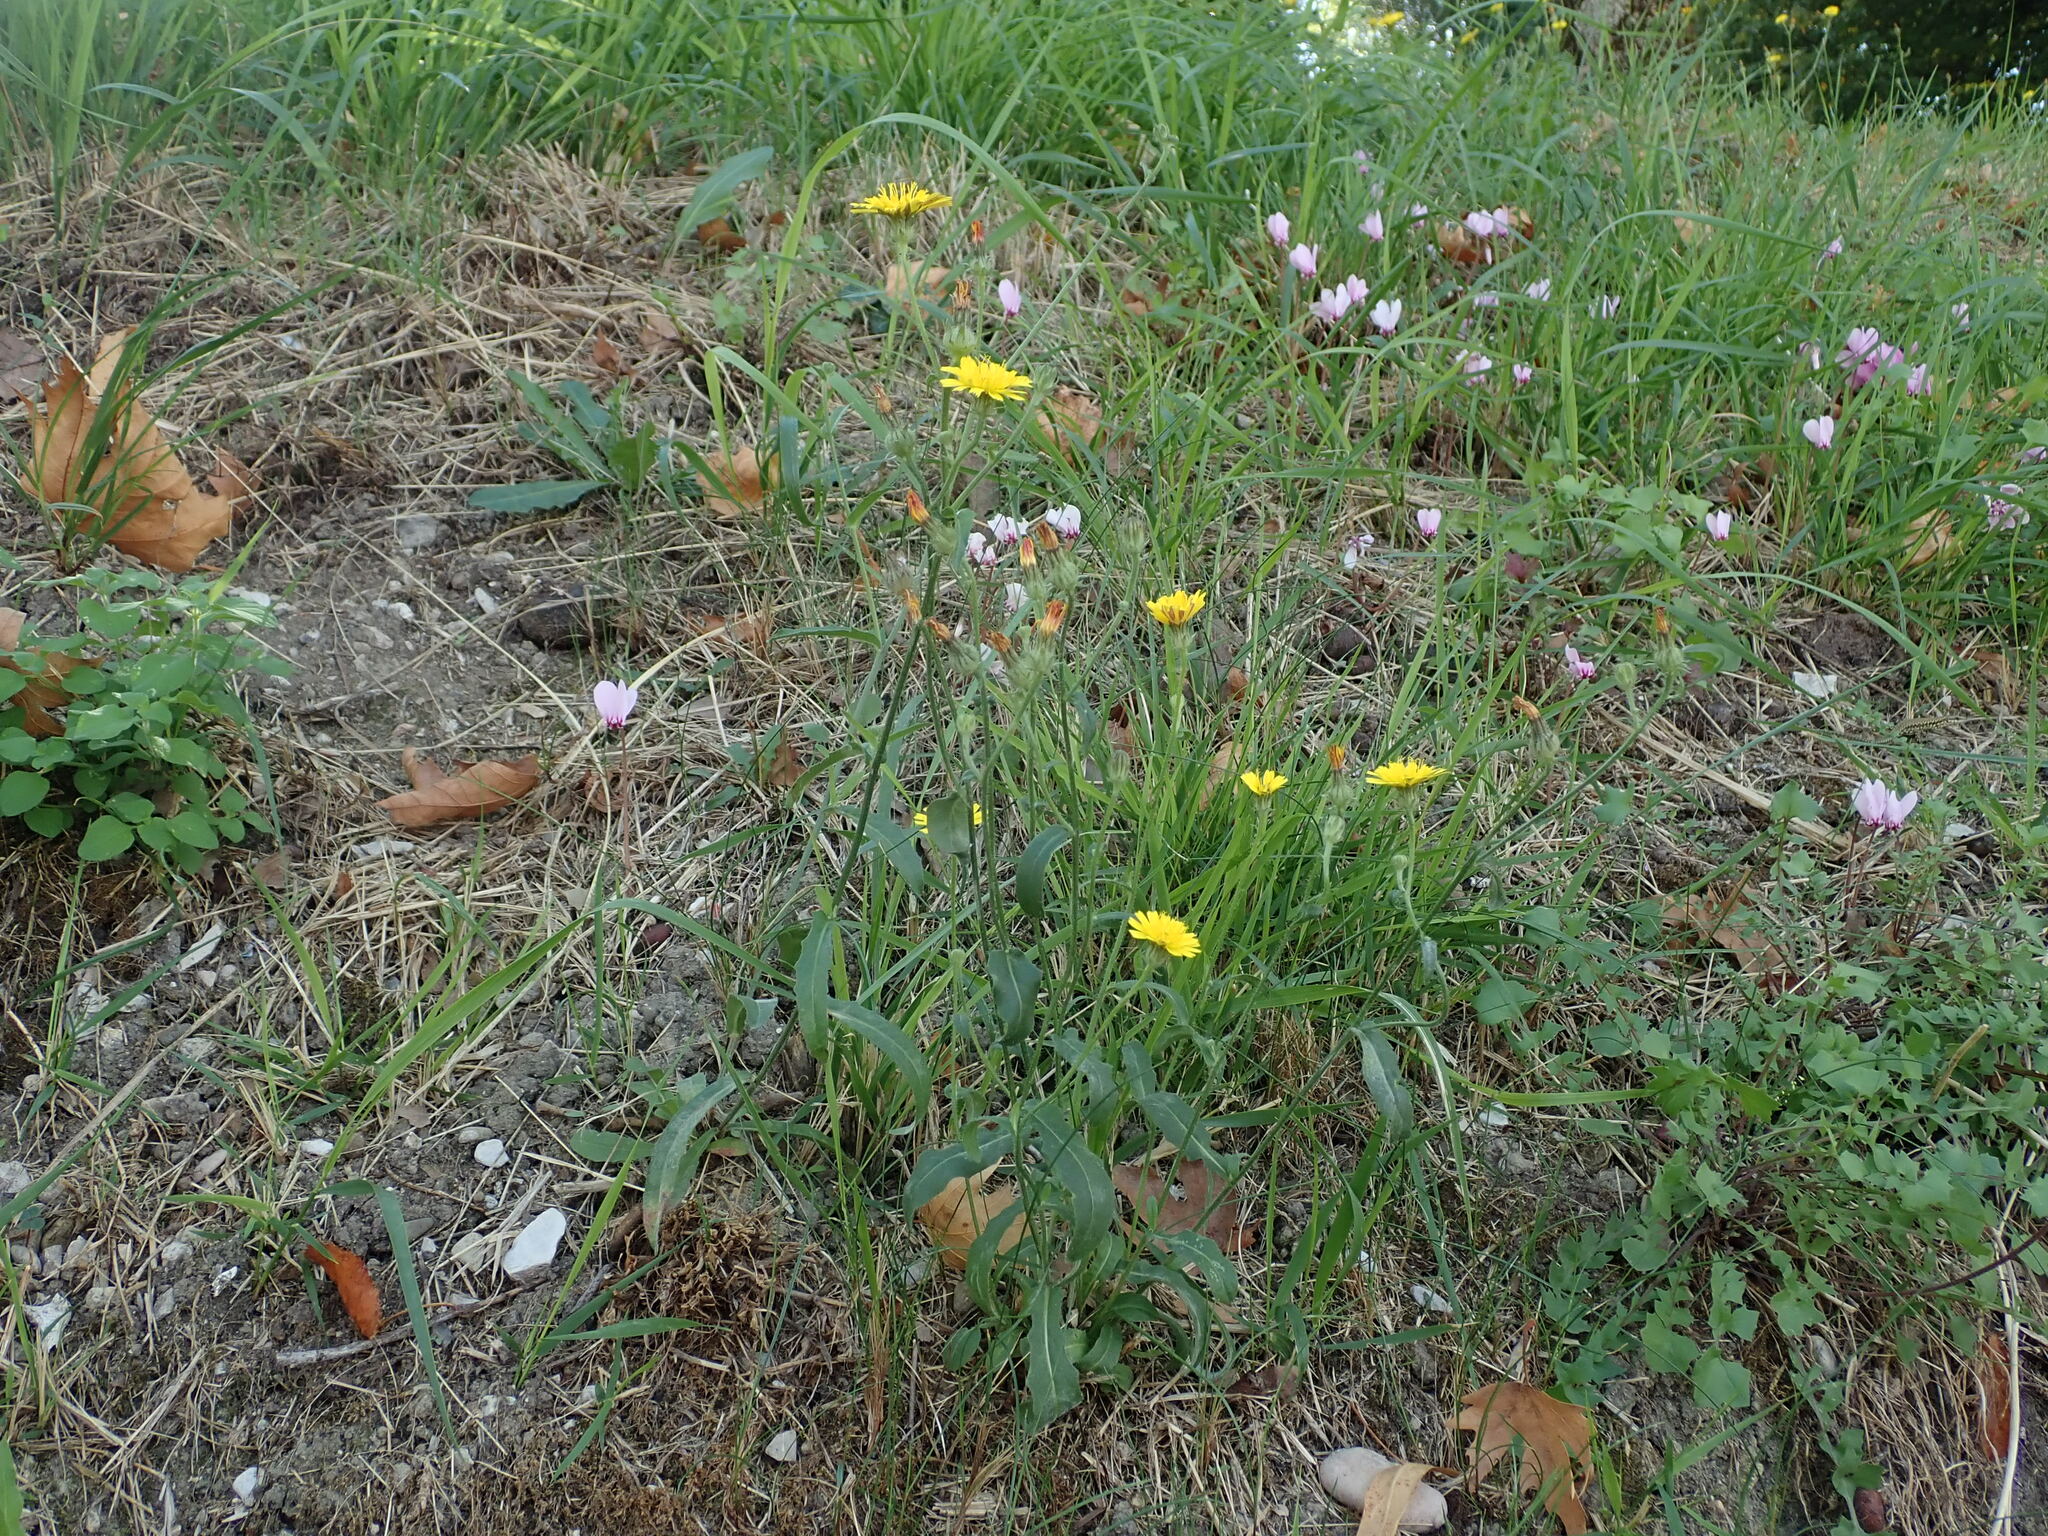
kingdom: Plantae
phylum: Tracheophyta
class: Magnoliopsida
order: Asterales
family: Asteraceae
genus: Picris
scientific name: Picris hieracioides
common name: Hawkweed oxtongue
